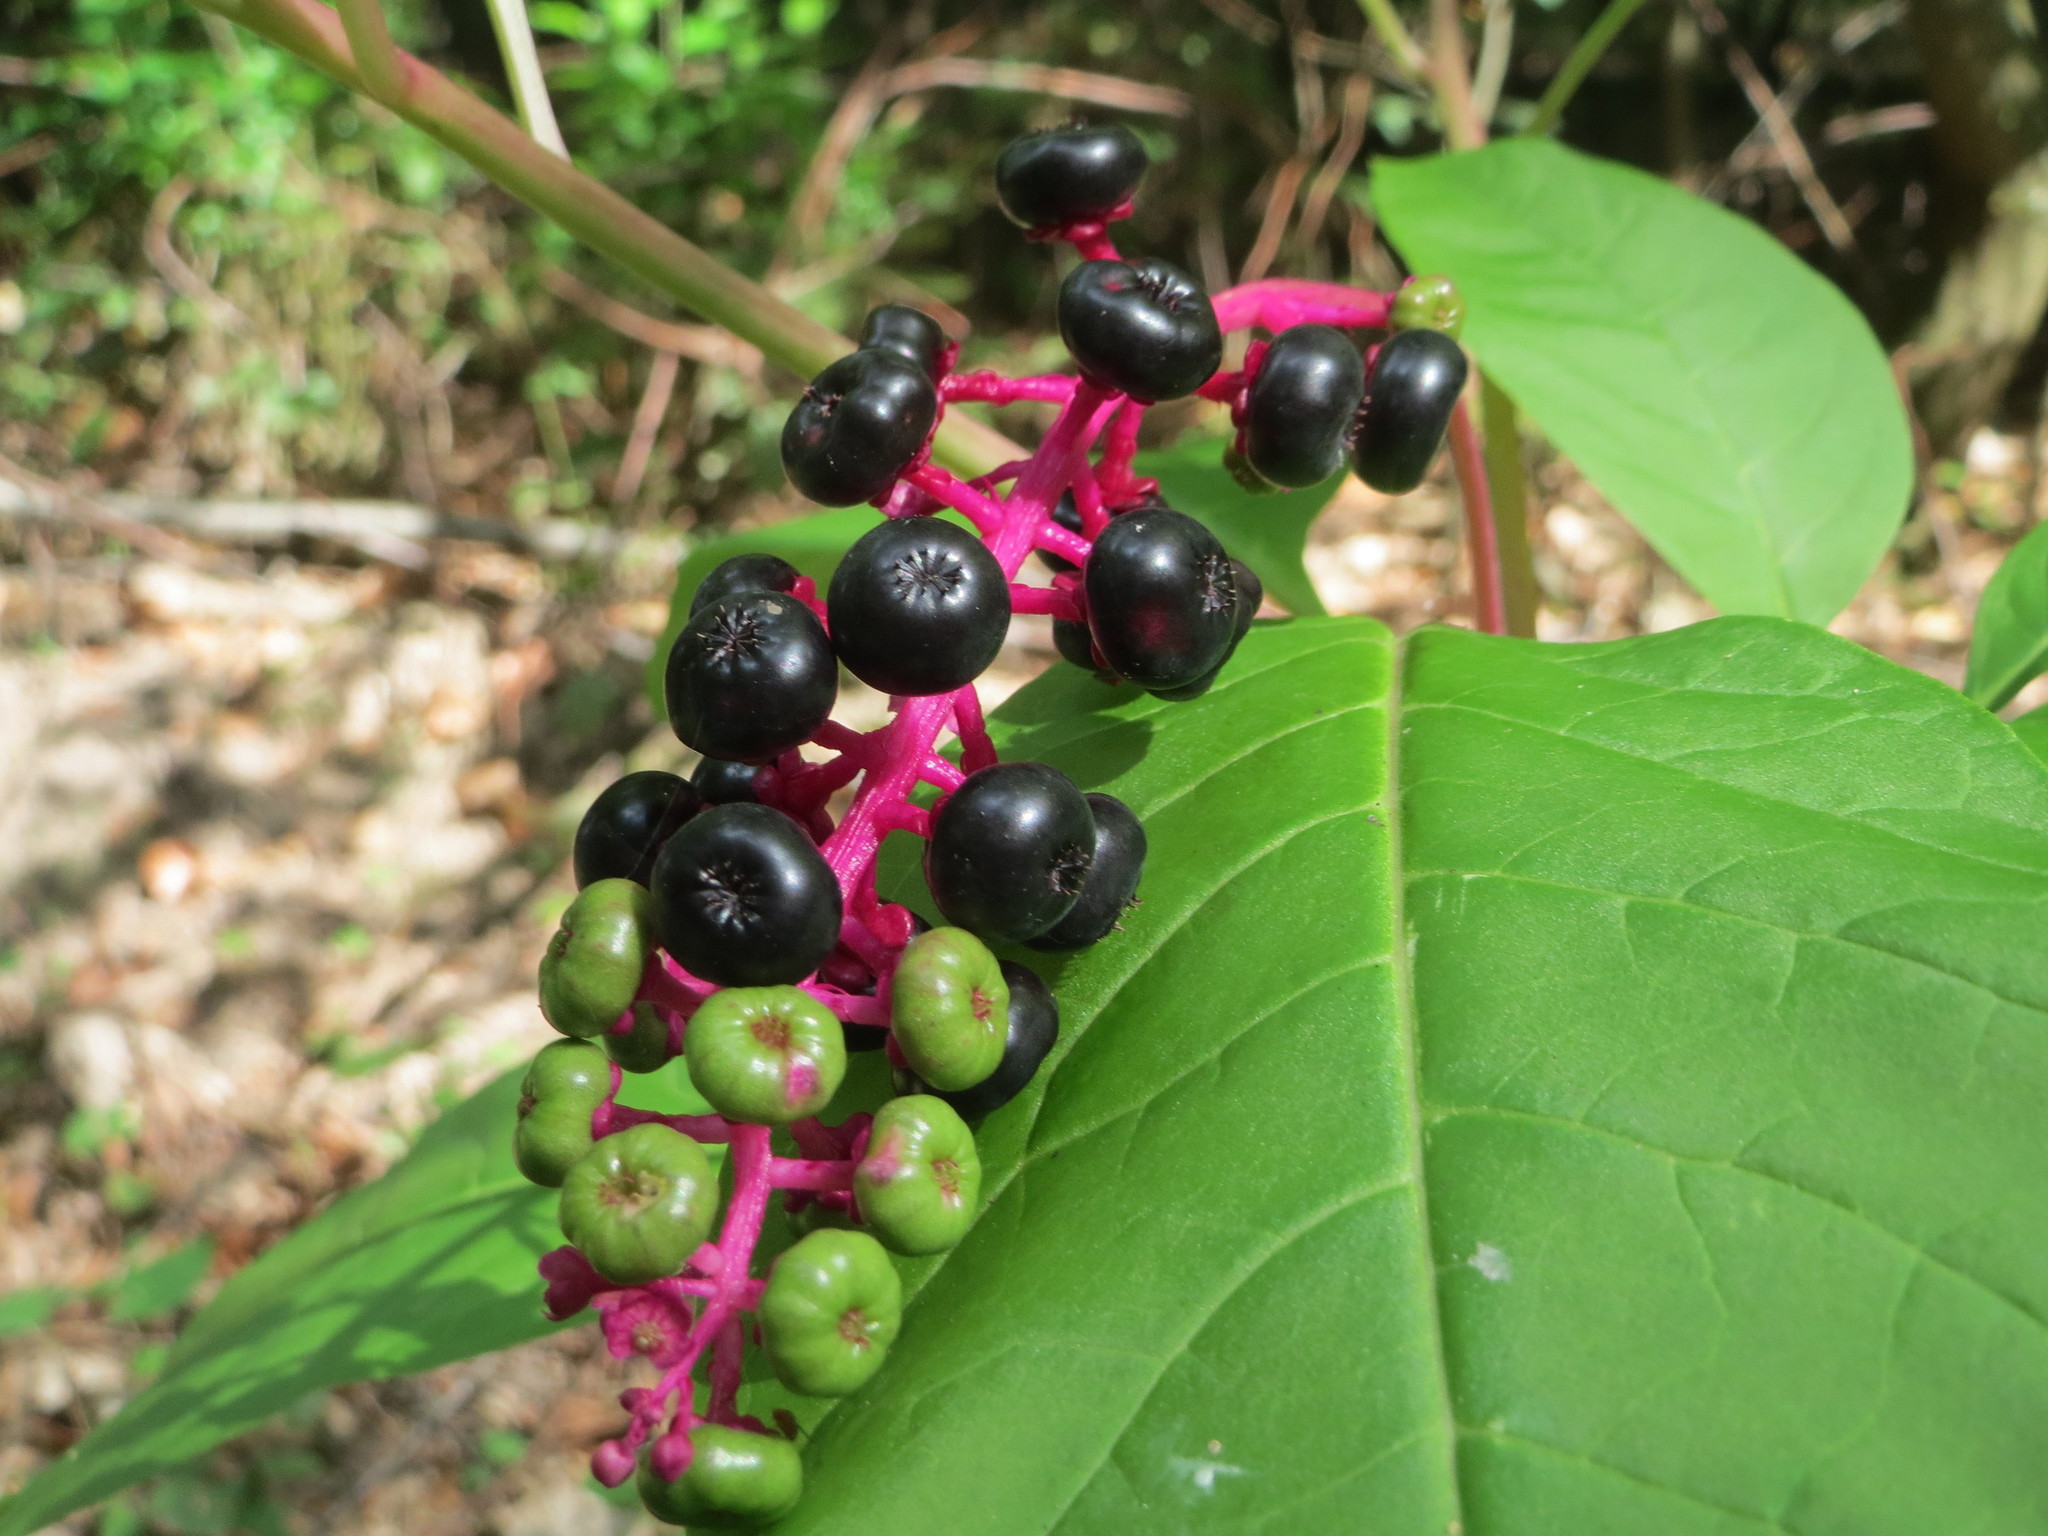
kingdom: Plantae
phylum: Tracheophyta
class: Magnoliopsida
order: Caryophyllales
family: Phytolaccaceae
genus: Phytolacca
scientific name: Phytolacca americana
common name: American pokeweed
